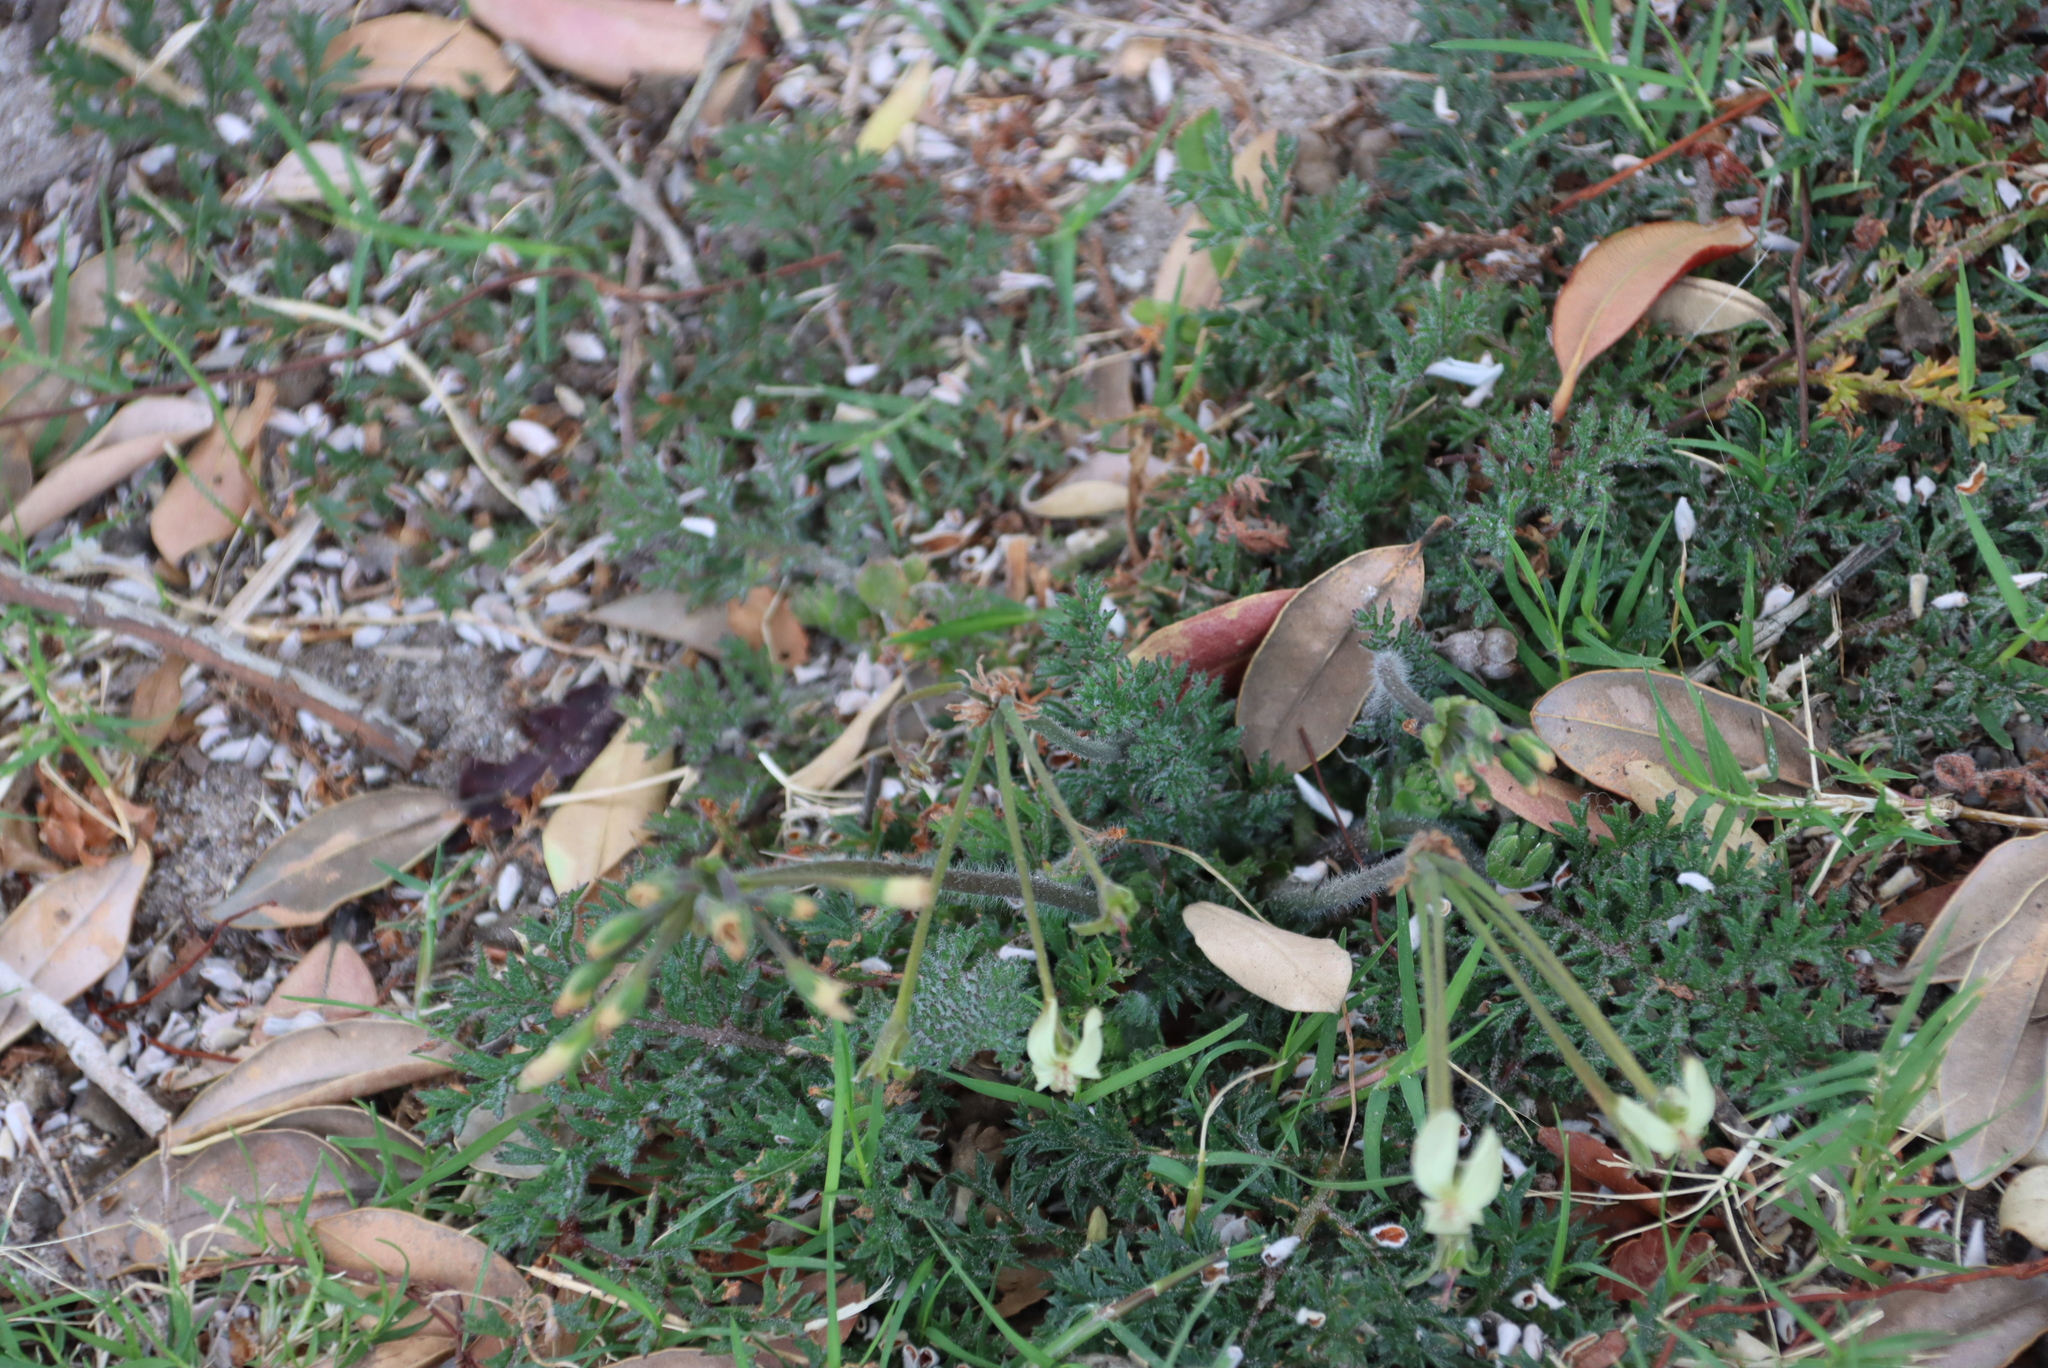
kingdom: Plantae
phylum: Tracheophyta
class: Magnoliopsida
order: Geraniales
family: Geraniaceae
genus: Pelargonium
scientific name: Pelargonium triste
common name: Night-scent pelargonium
